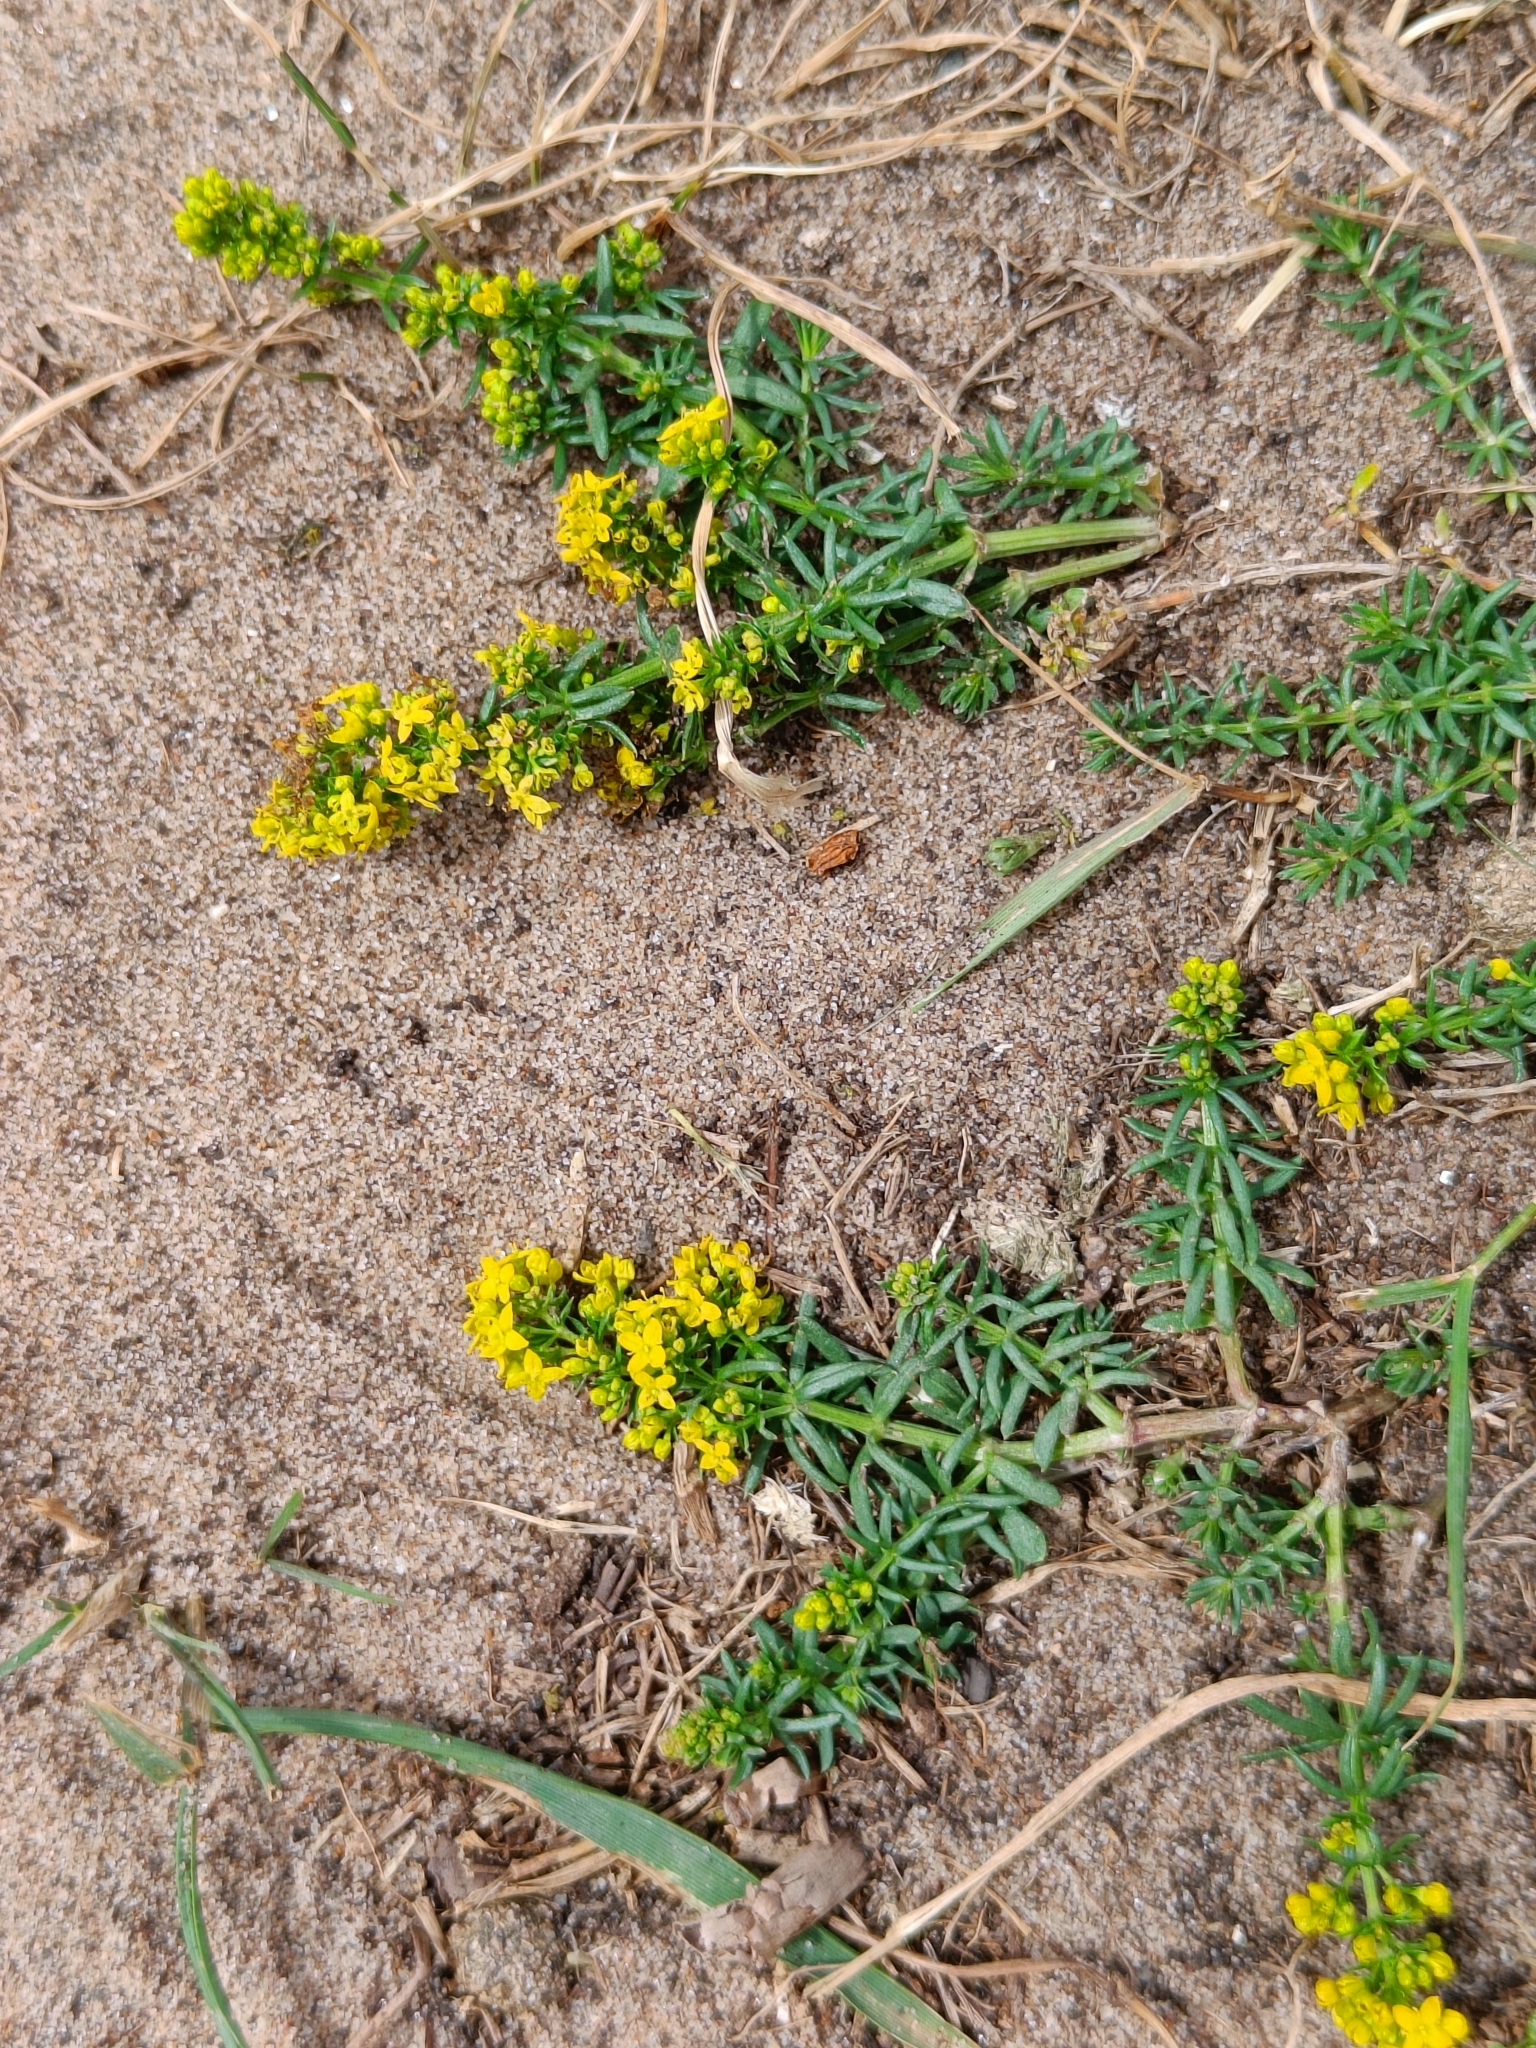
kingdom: Plantae
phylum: Tracheophyta
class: Magnoliopsida
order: Gentianales
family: Rubiaceae
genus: Galium
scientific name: Galium verum
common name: Lady's bedstraw
